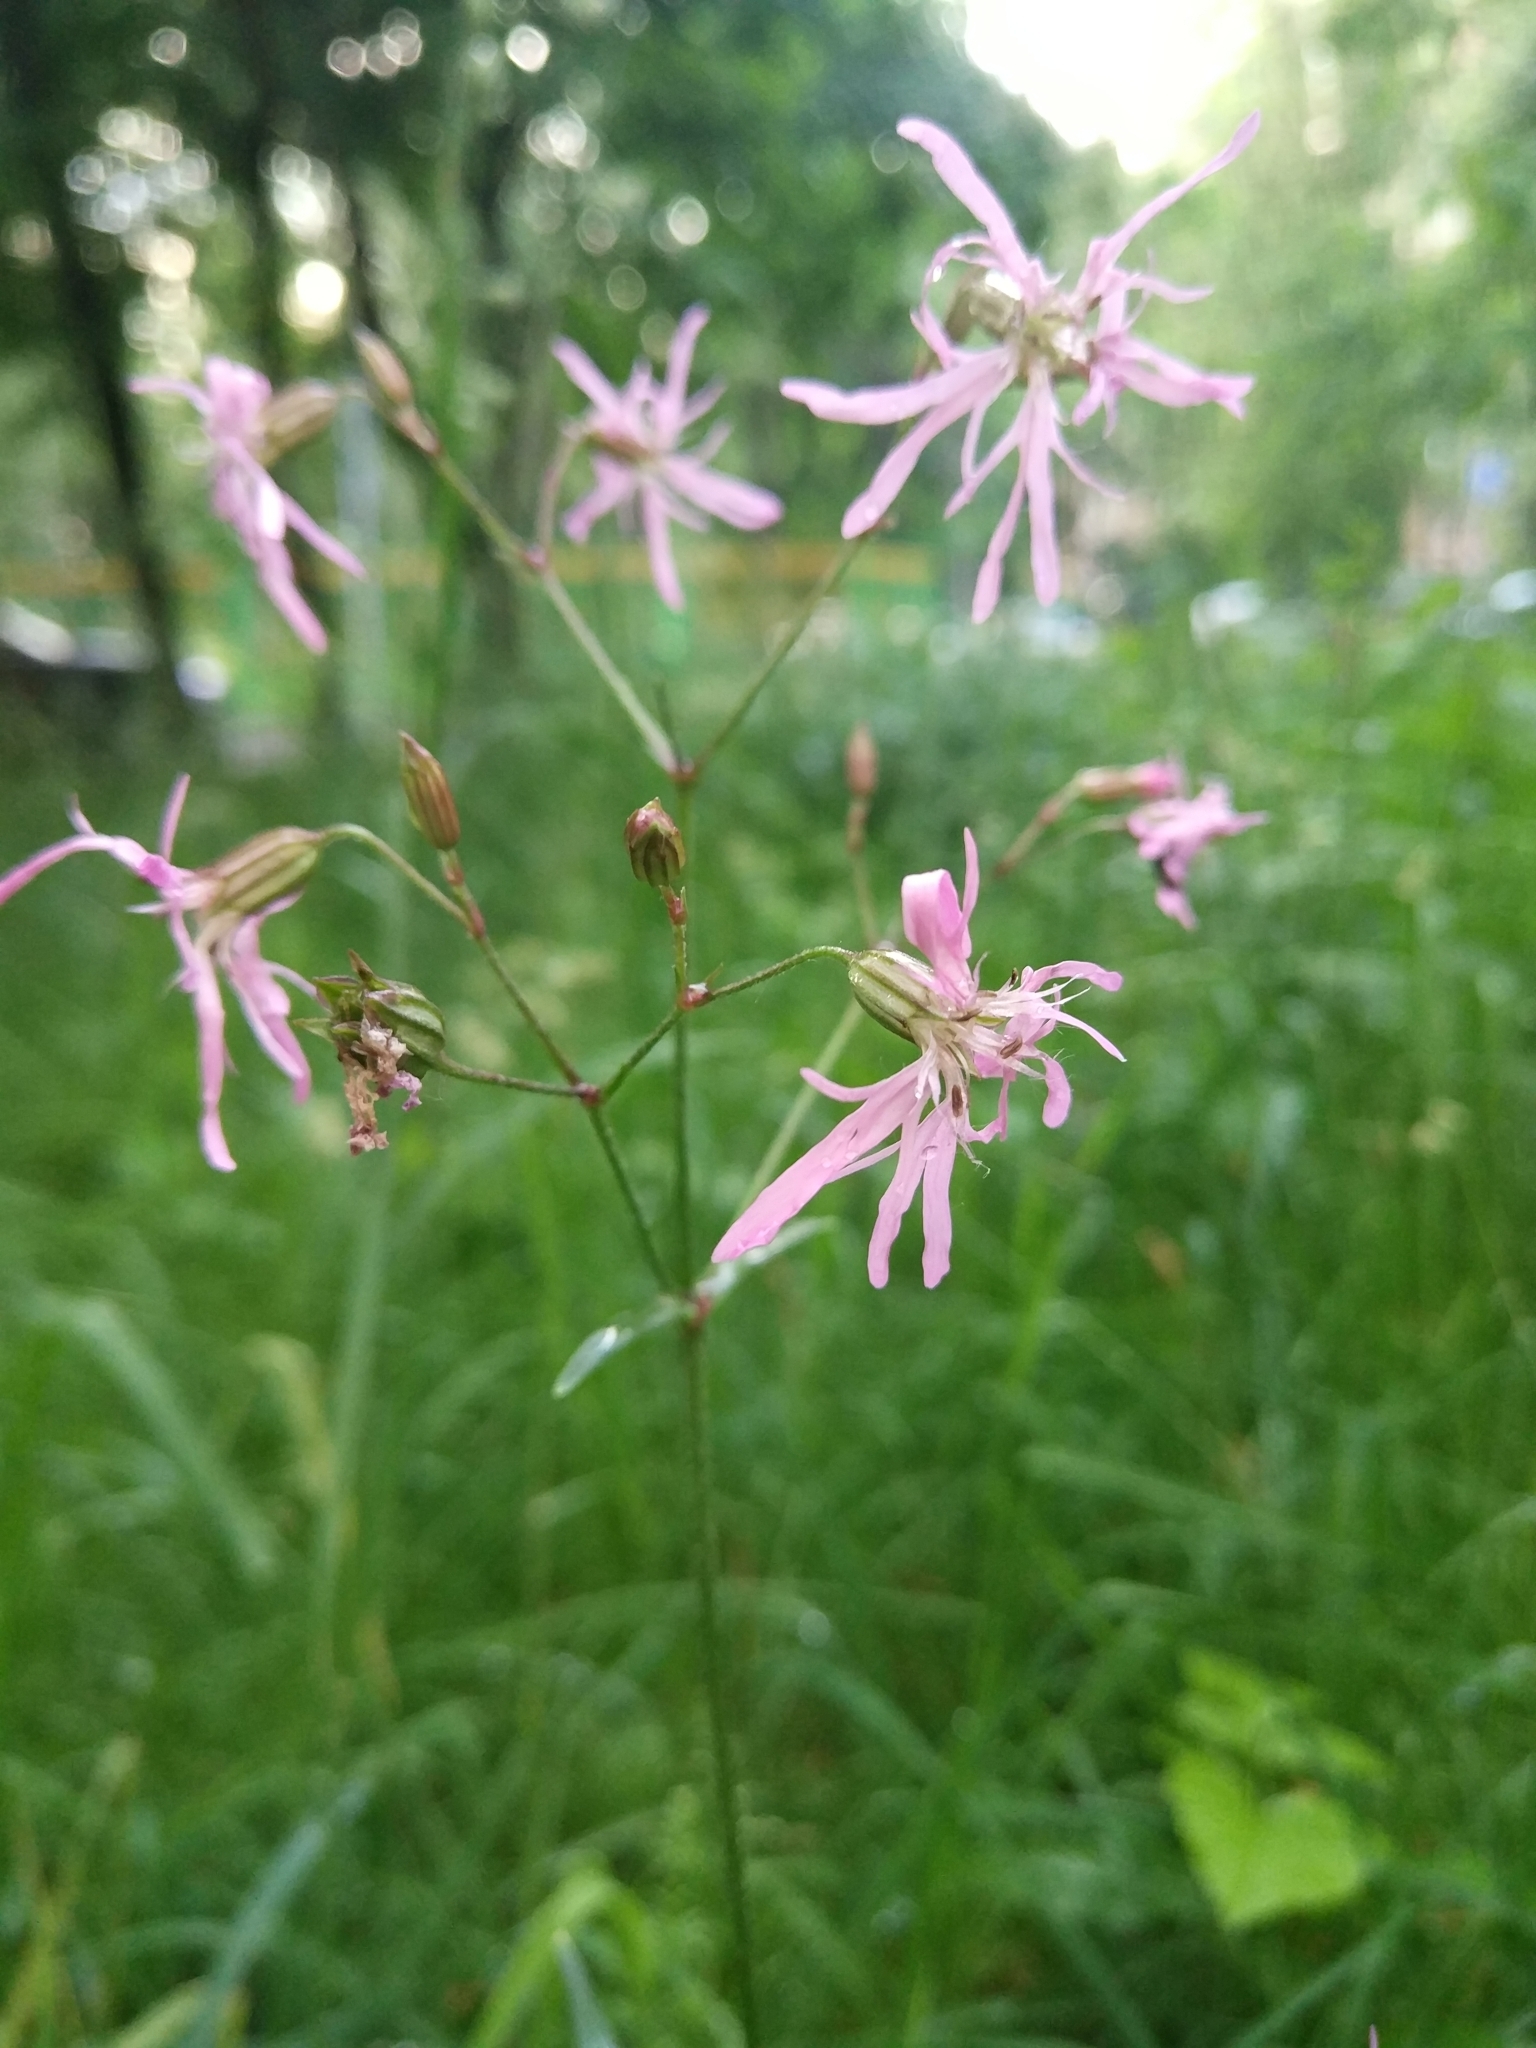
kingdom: Plantae
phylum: Tracheophyta
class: Magnoliopsida
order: Caryophyllales
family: Caryophyllaceae
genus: Silene
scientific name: Silene flos-cuculi
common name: Ragged-robin
